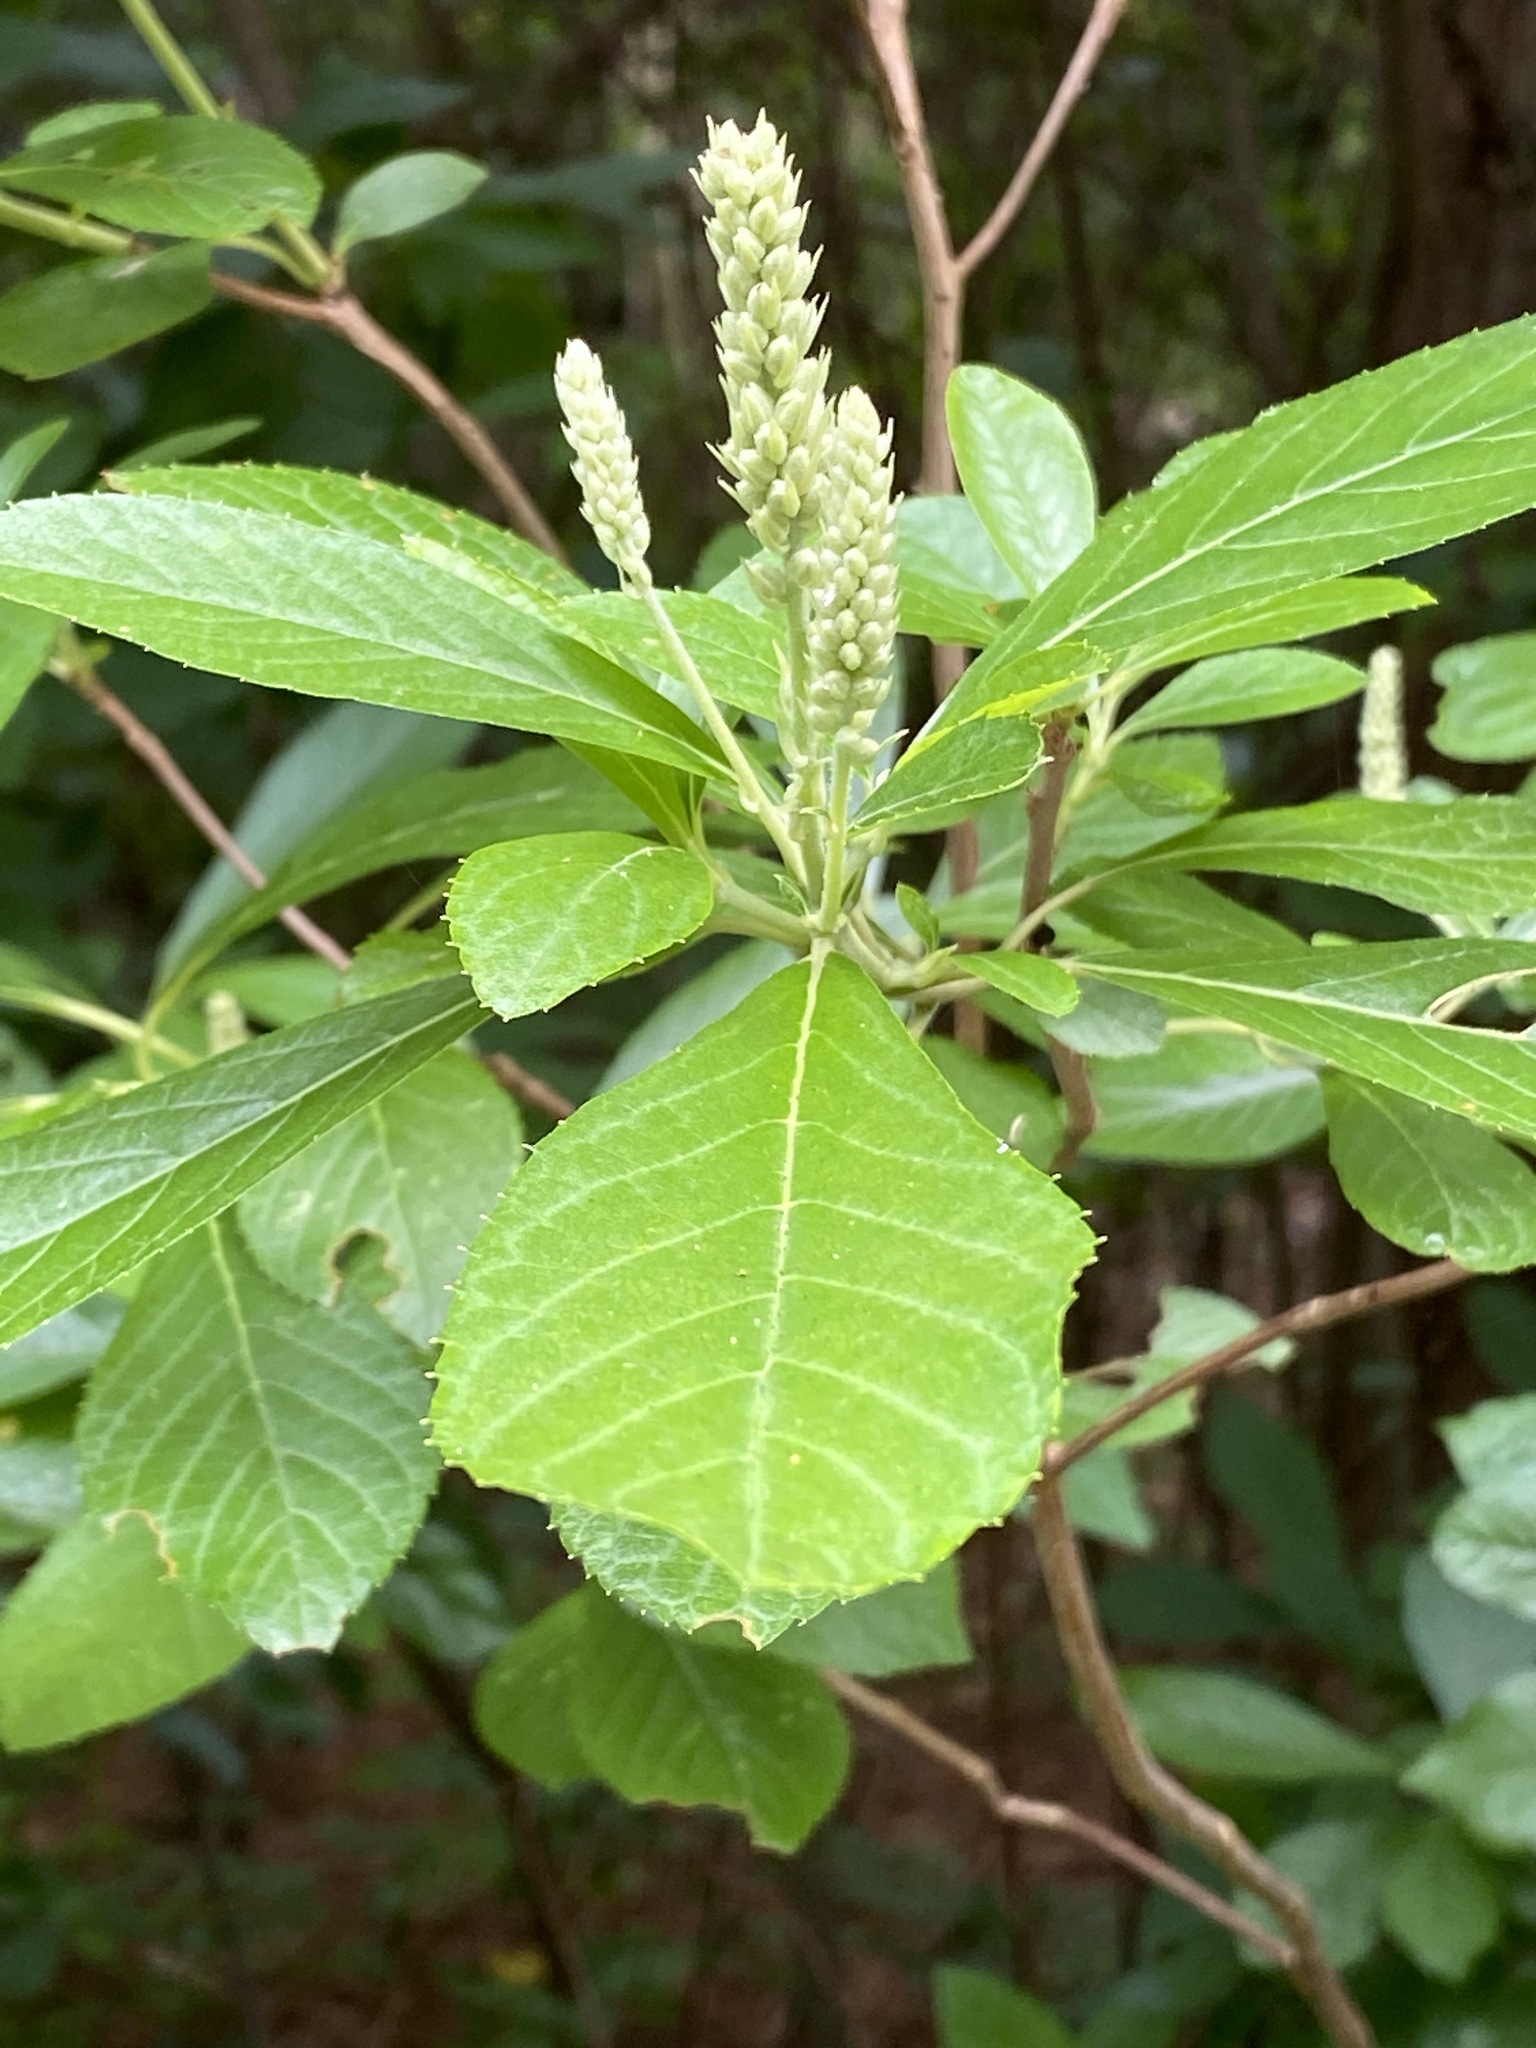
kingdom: Plantae
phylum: Tracheophyta
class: Magnoliopsida
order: Ericales
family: Clethraceae
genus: Clethra
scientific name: Clethra alnifolia
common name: Sweet pepperbush
